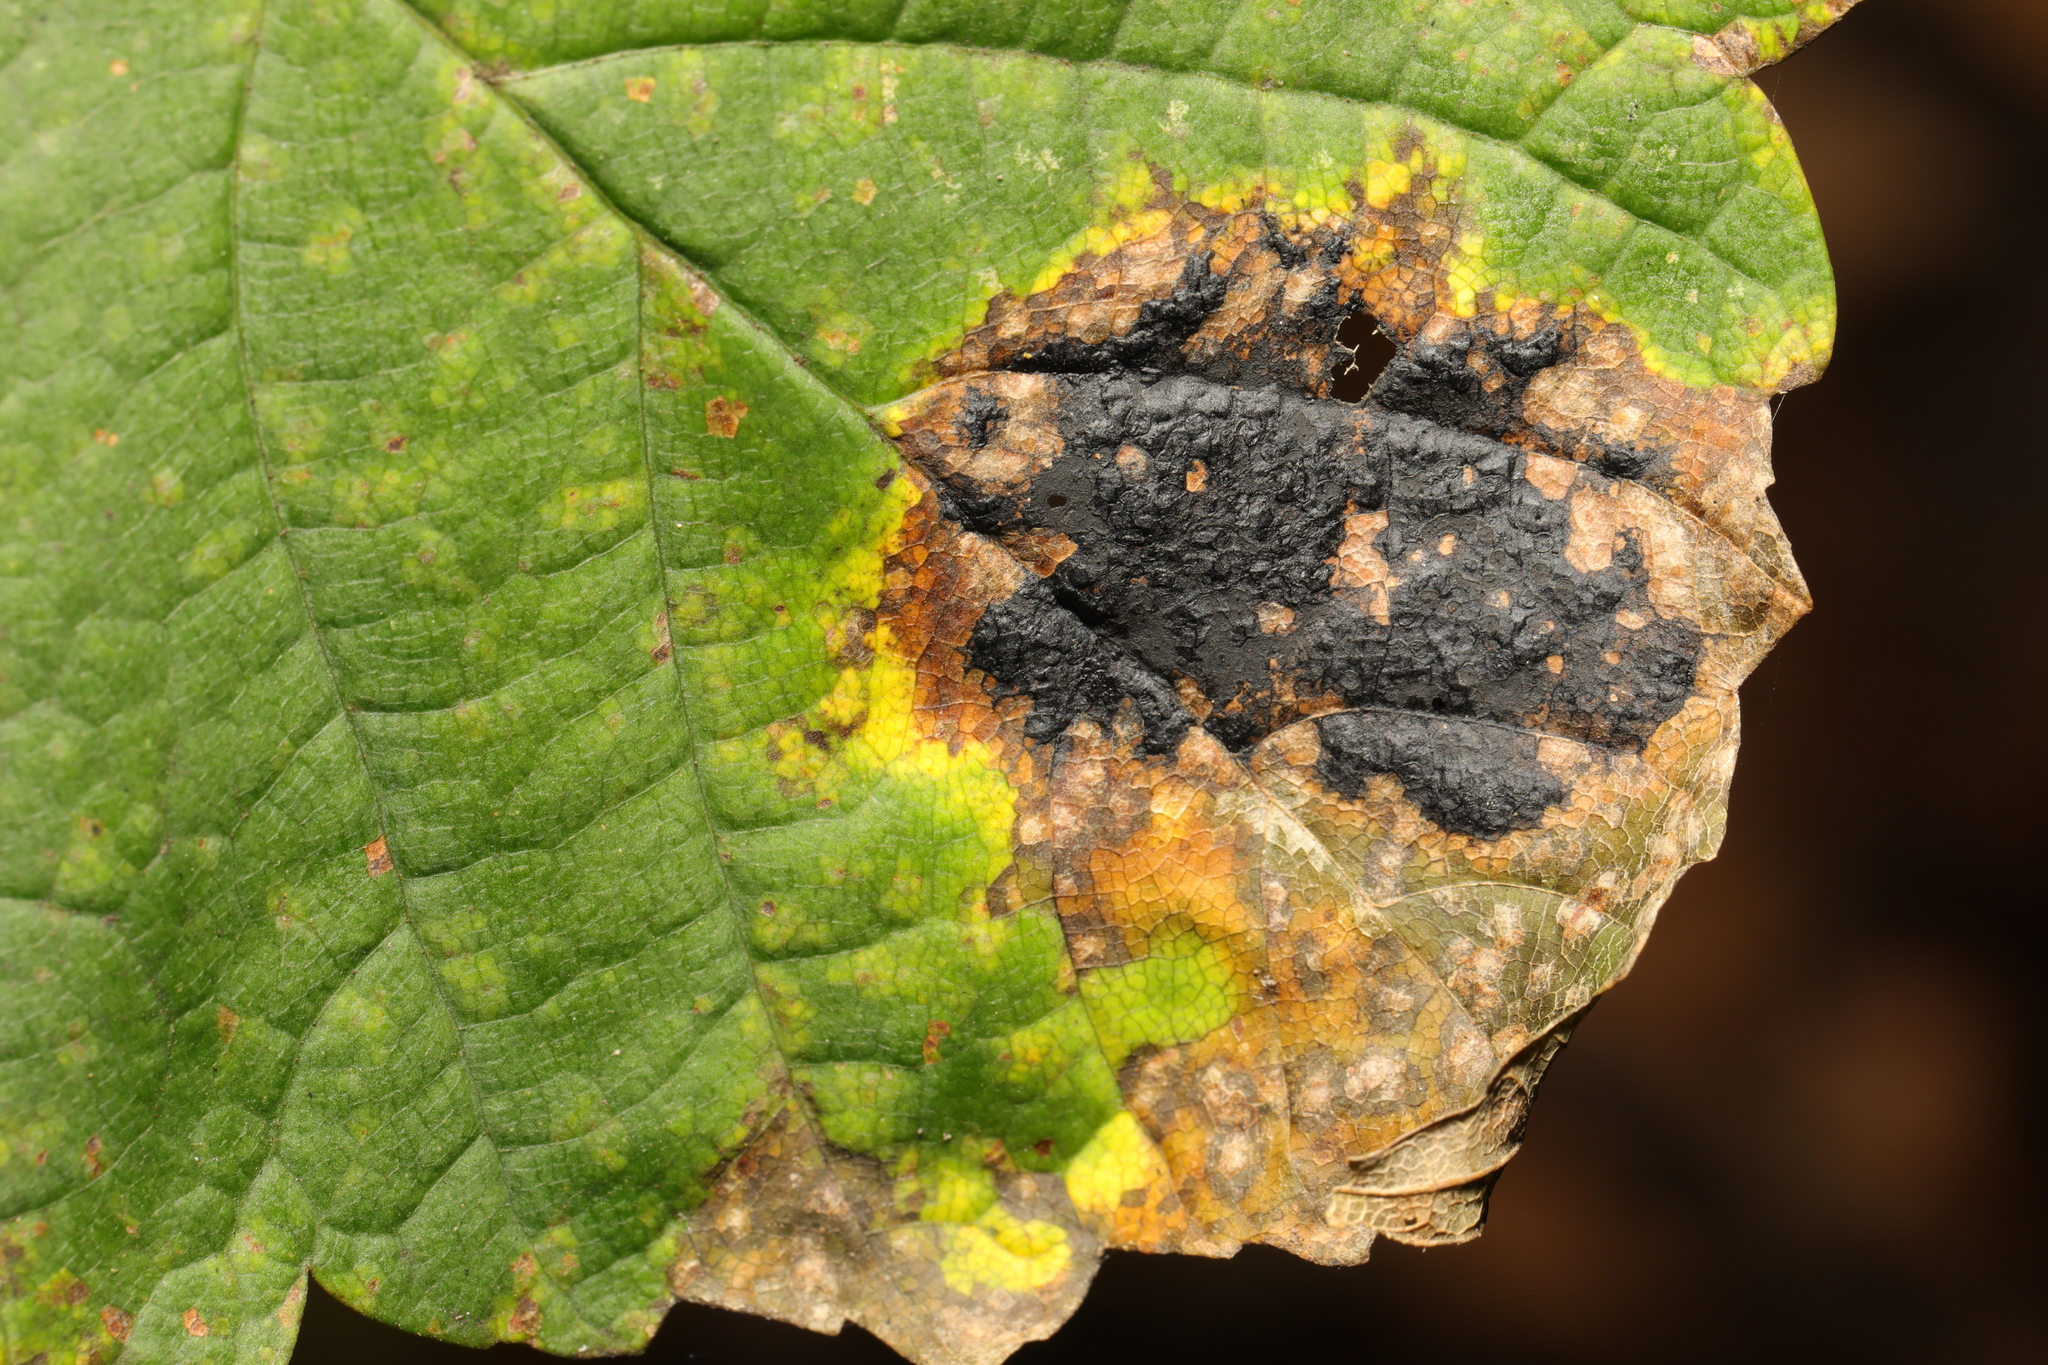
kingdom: Fungi
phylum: Ascomycota
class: Leotiomycetes
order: Rhytismatales
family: Rhytismataceae
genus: Rhytisma
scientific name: Rhytisma acerinum
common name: European tar spot
